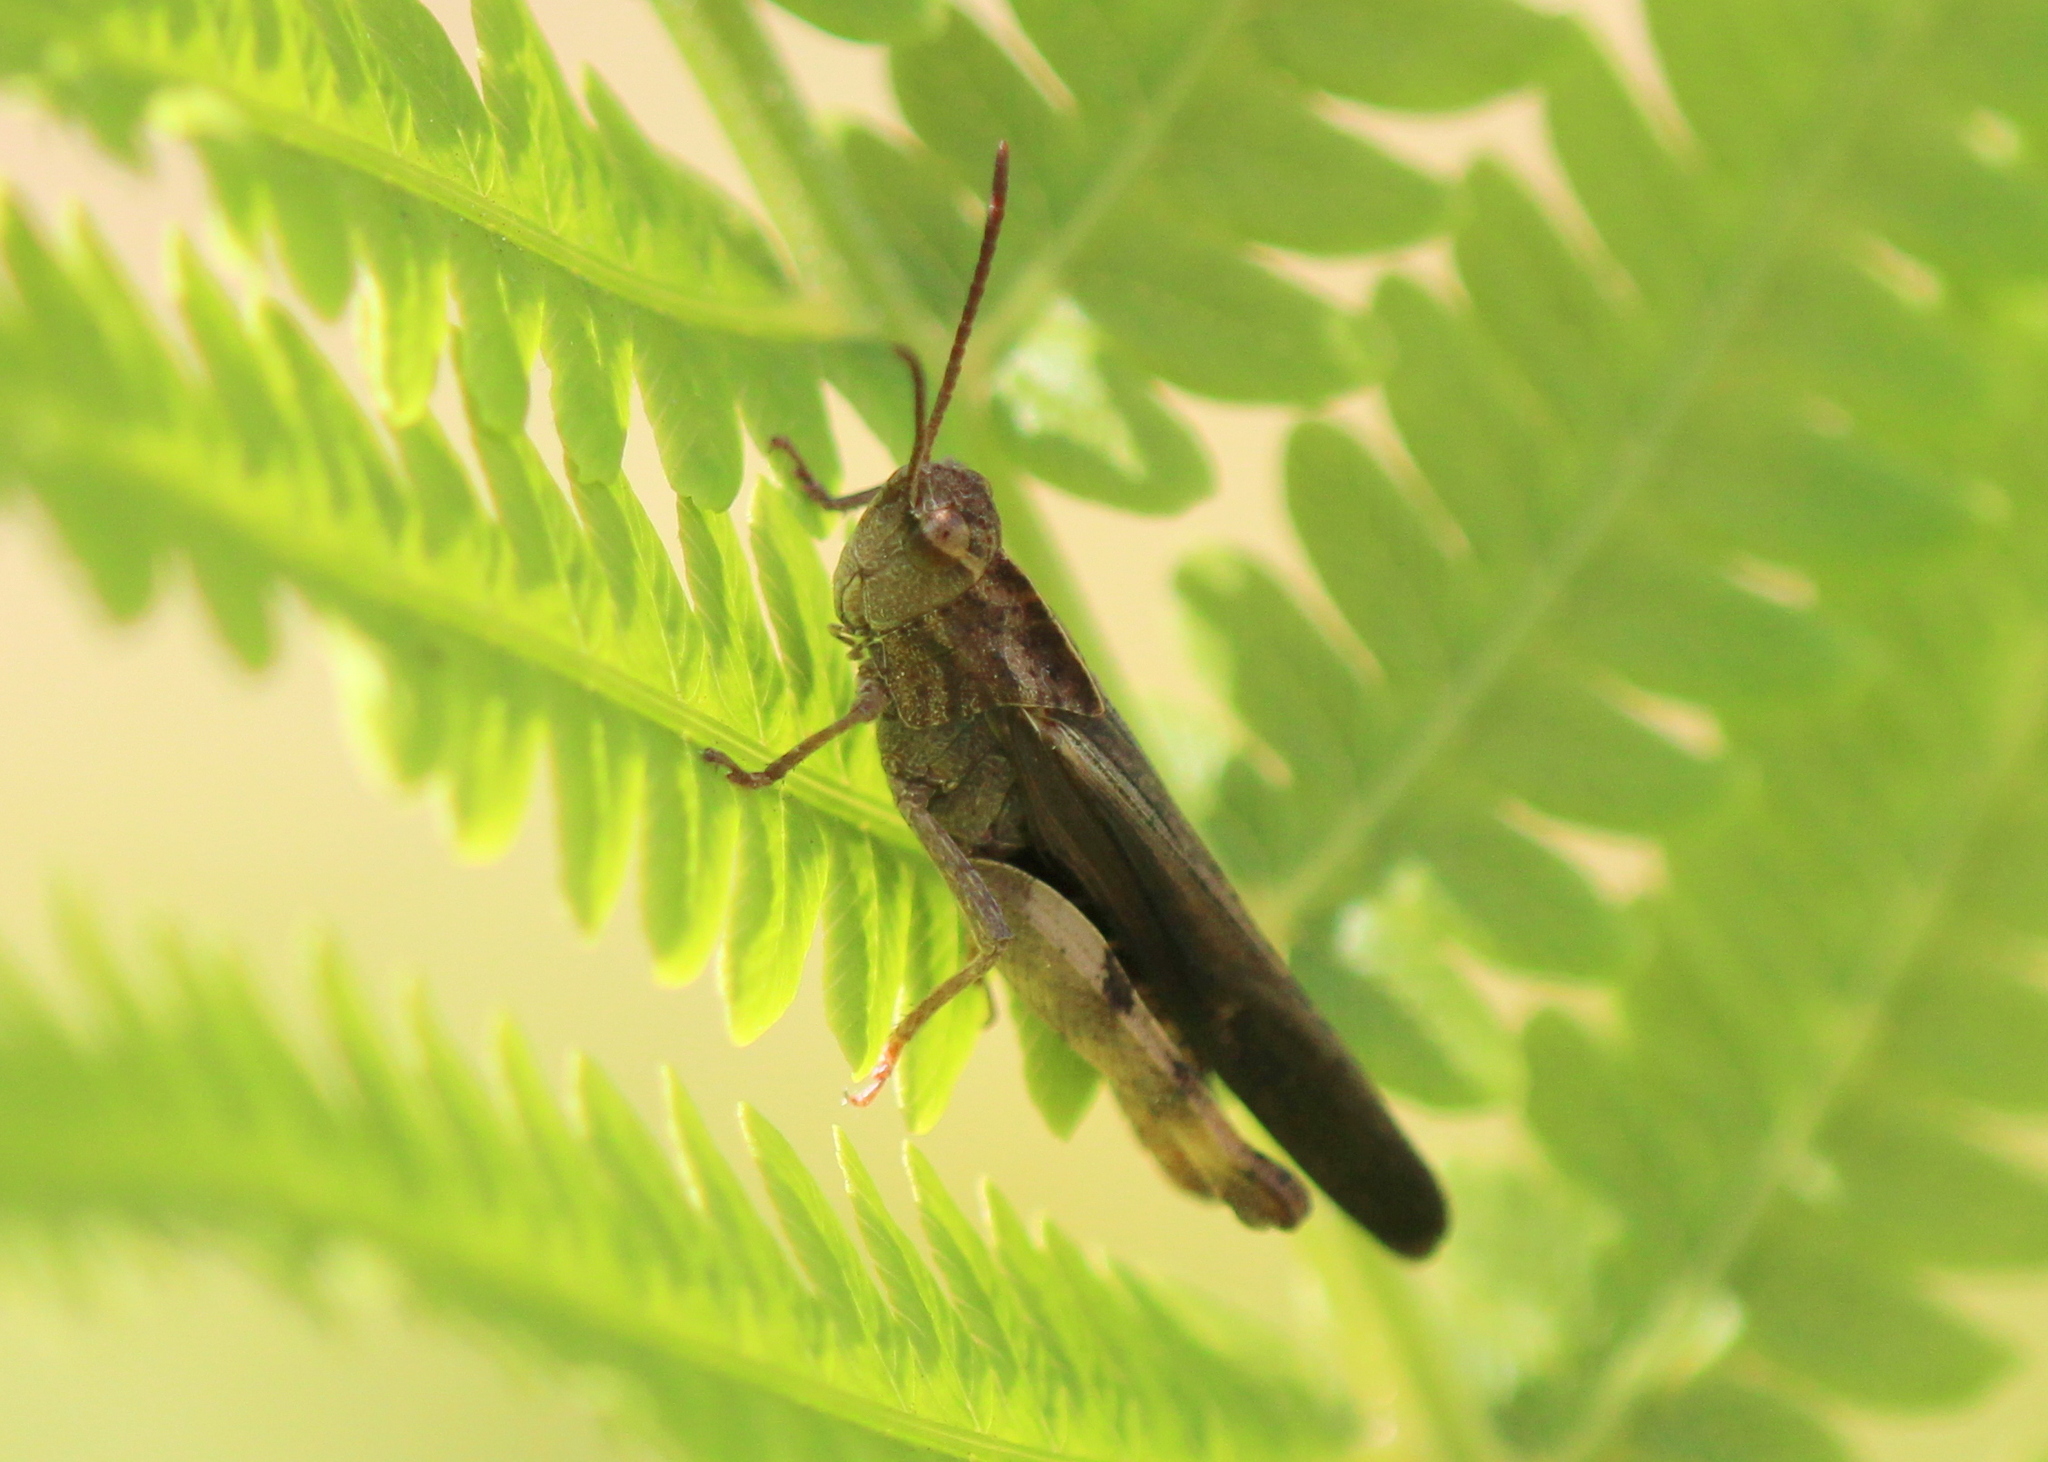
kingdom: Animalia
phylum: Arthropoda
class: Insecta
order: Orthoptera
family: Acrididae
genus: Chortophaga
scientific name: Chortophaga viridifasciata
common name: Green-striped grasshopper
